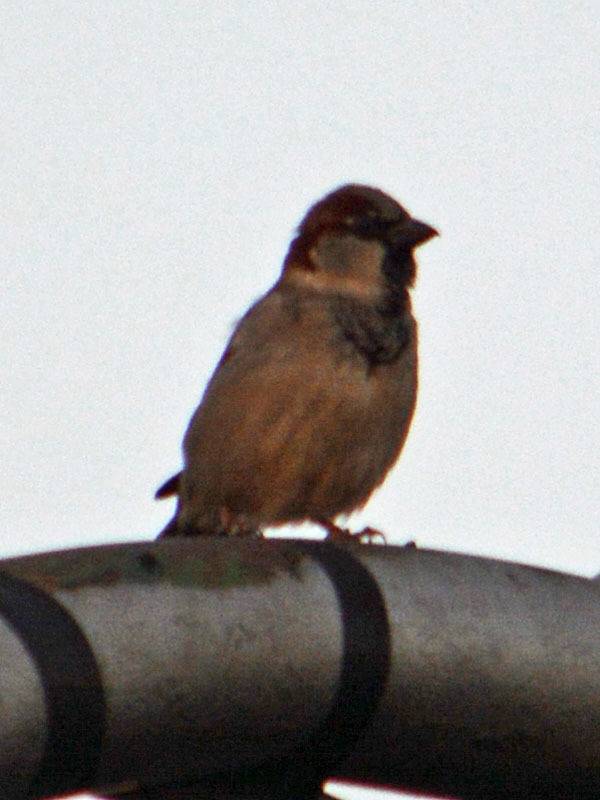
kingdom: Animalia
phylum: Chordata
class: Aves
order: Passeriformes
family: Passeridae
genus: Passer
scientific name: Passer domesticus
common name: House sparrow
